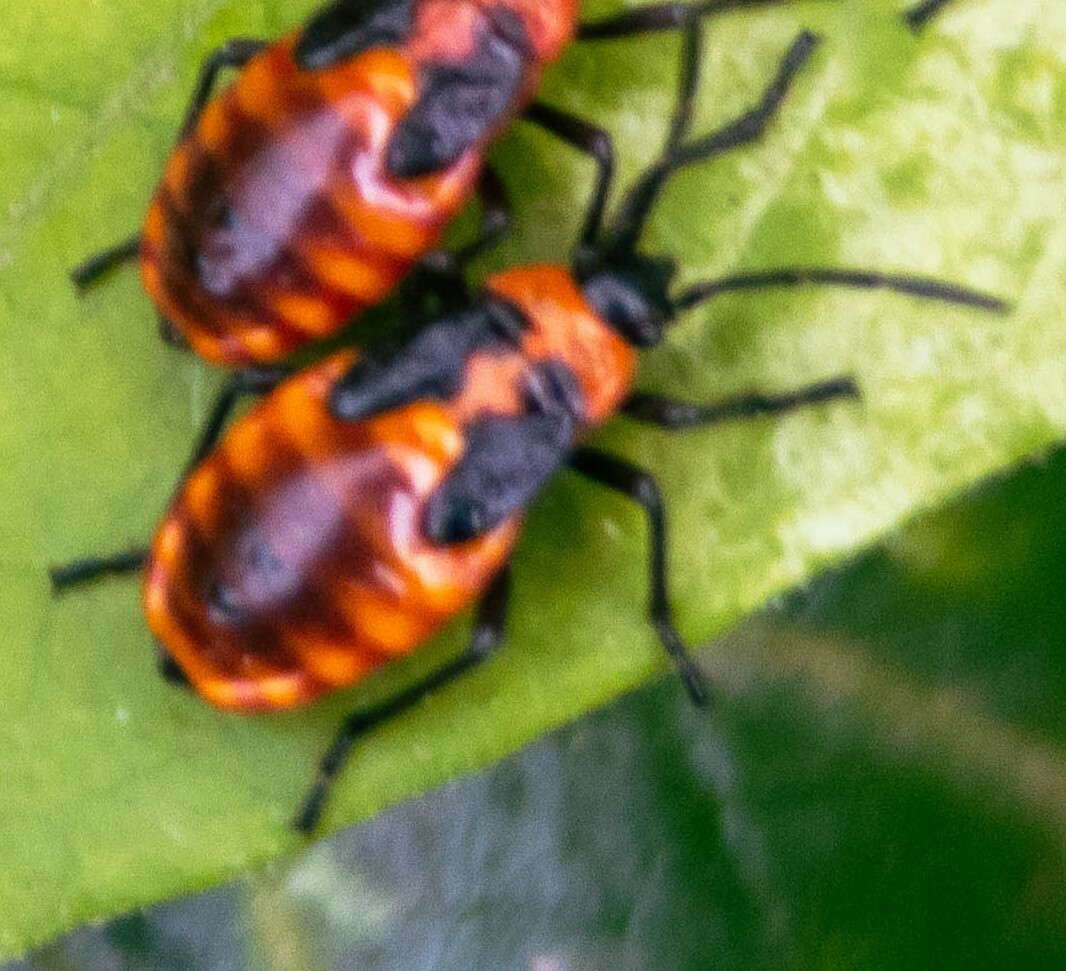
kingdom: Animalia
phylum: Arthropoda
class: Insecta
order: Hemiptera
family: Lygaeidae
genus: Tropidothorax
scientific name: Tropidothorax leucopterus
